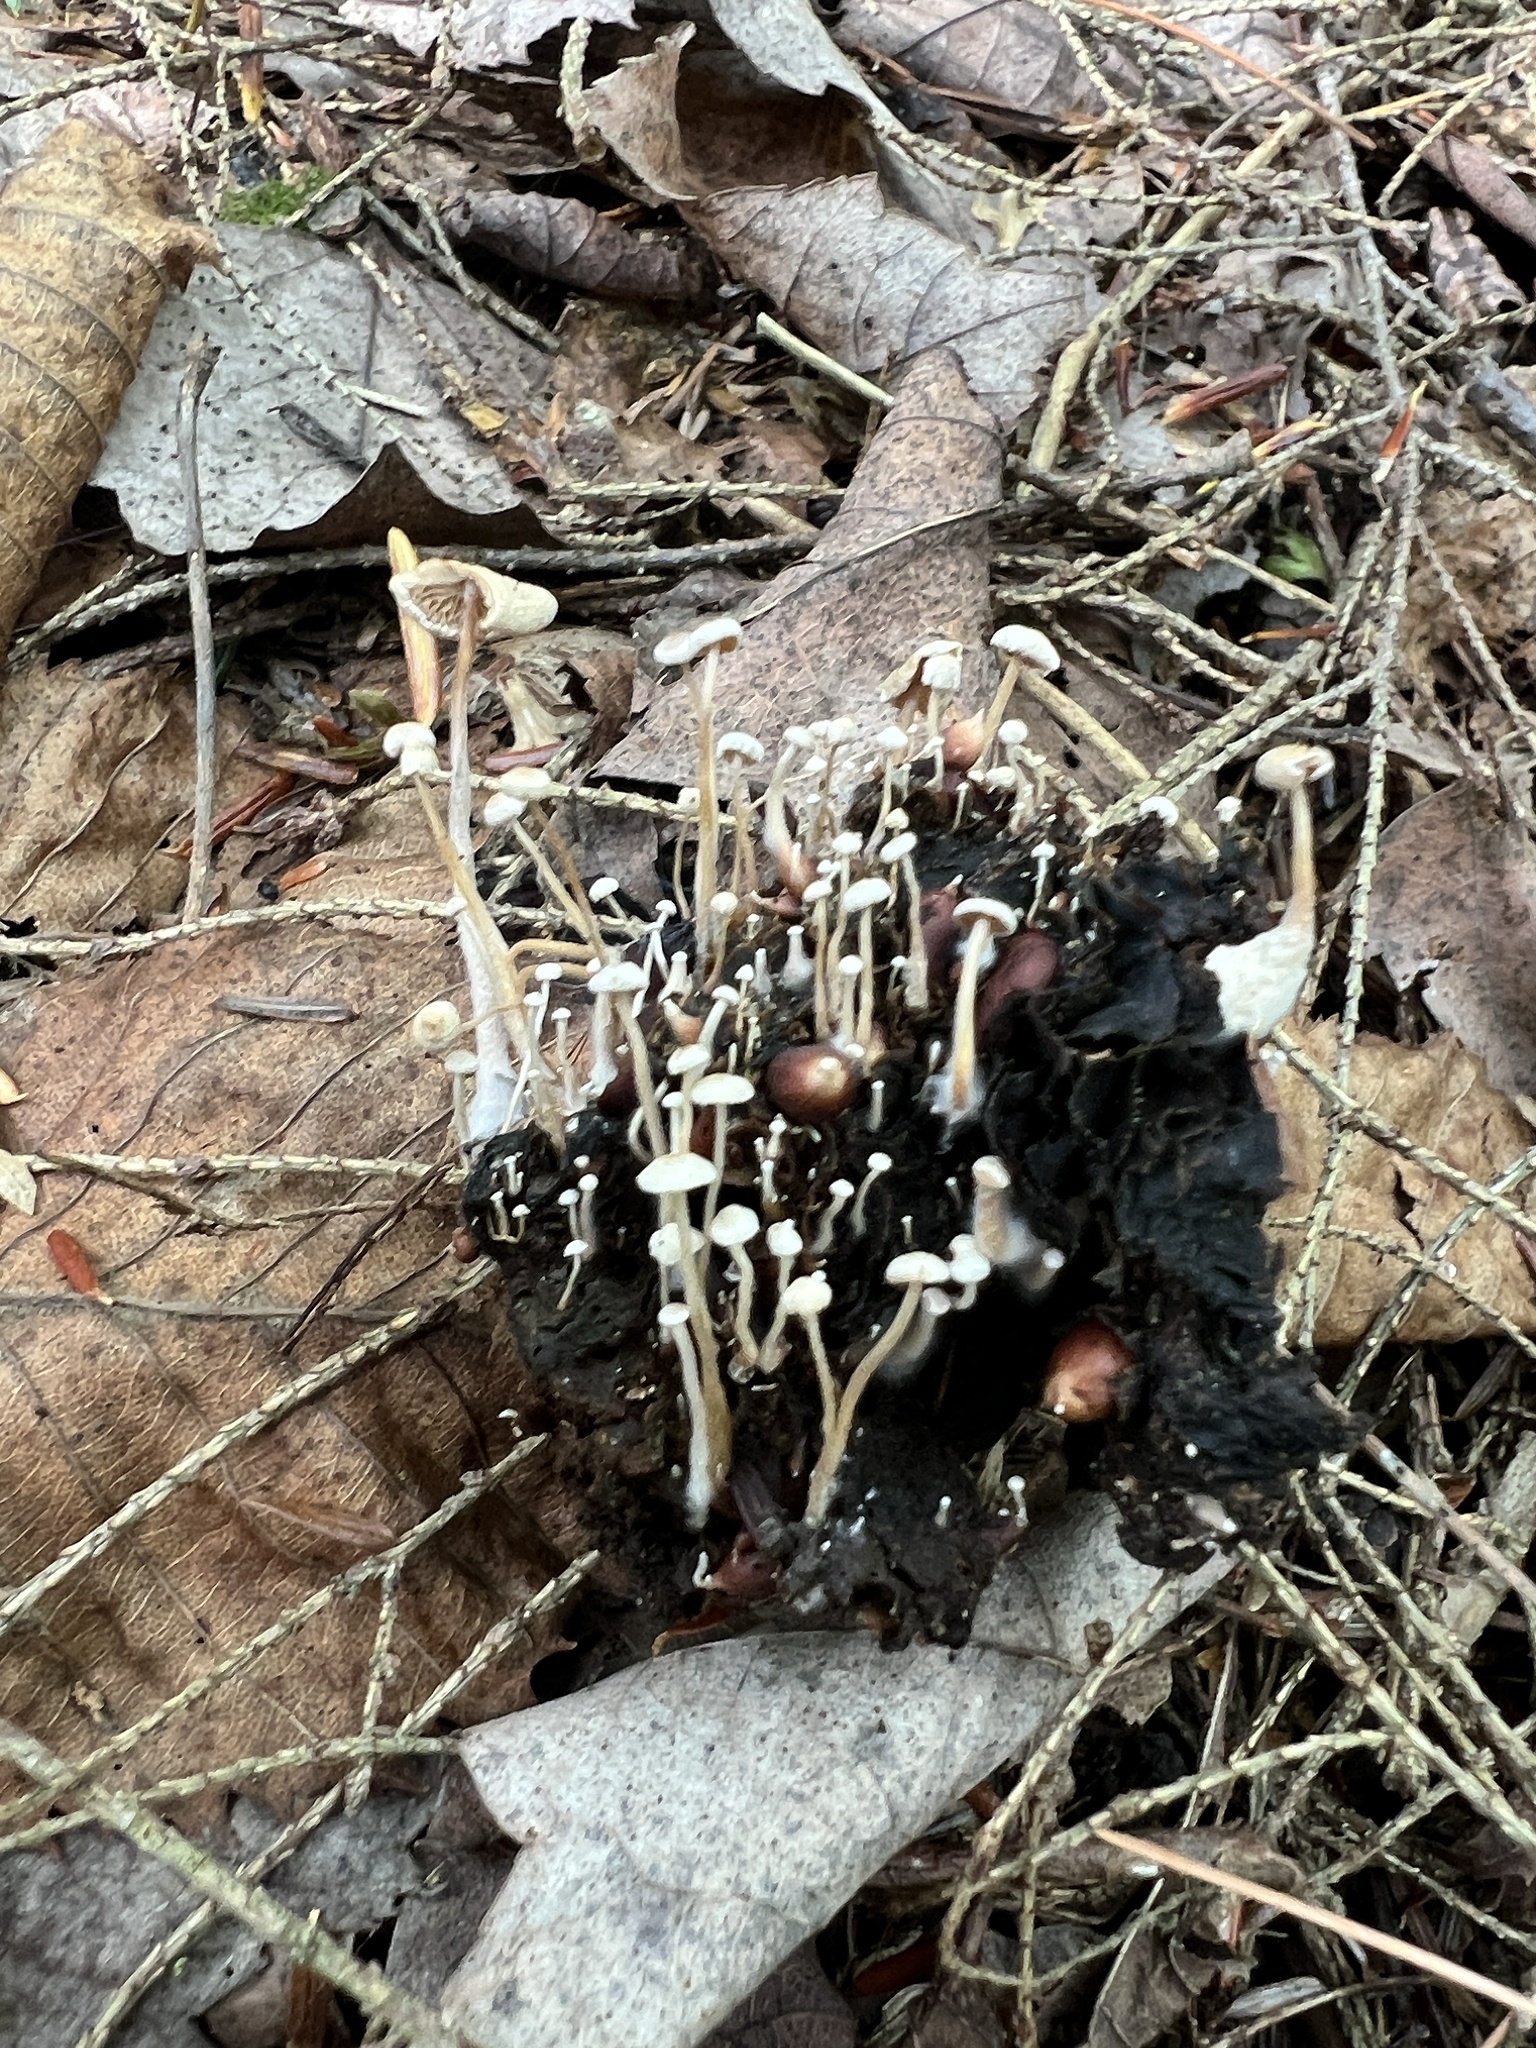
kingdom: Fungi
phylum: Basidiomycota
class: Agaricomycetes
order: Agaricales
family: Tricholomataceae
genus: Collybia
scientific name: Collybia tuberosa
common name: Lentil shanklet
